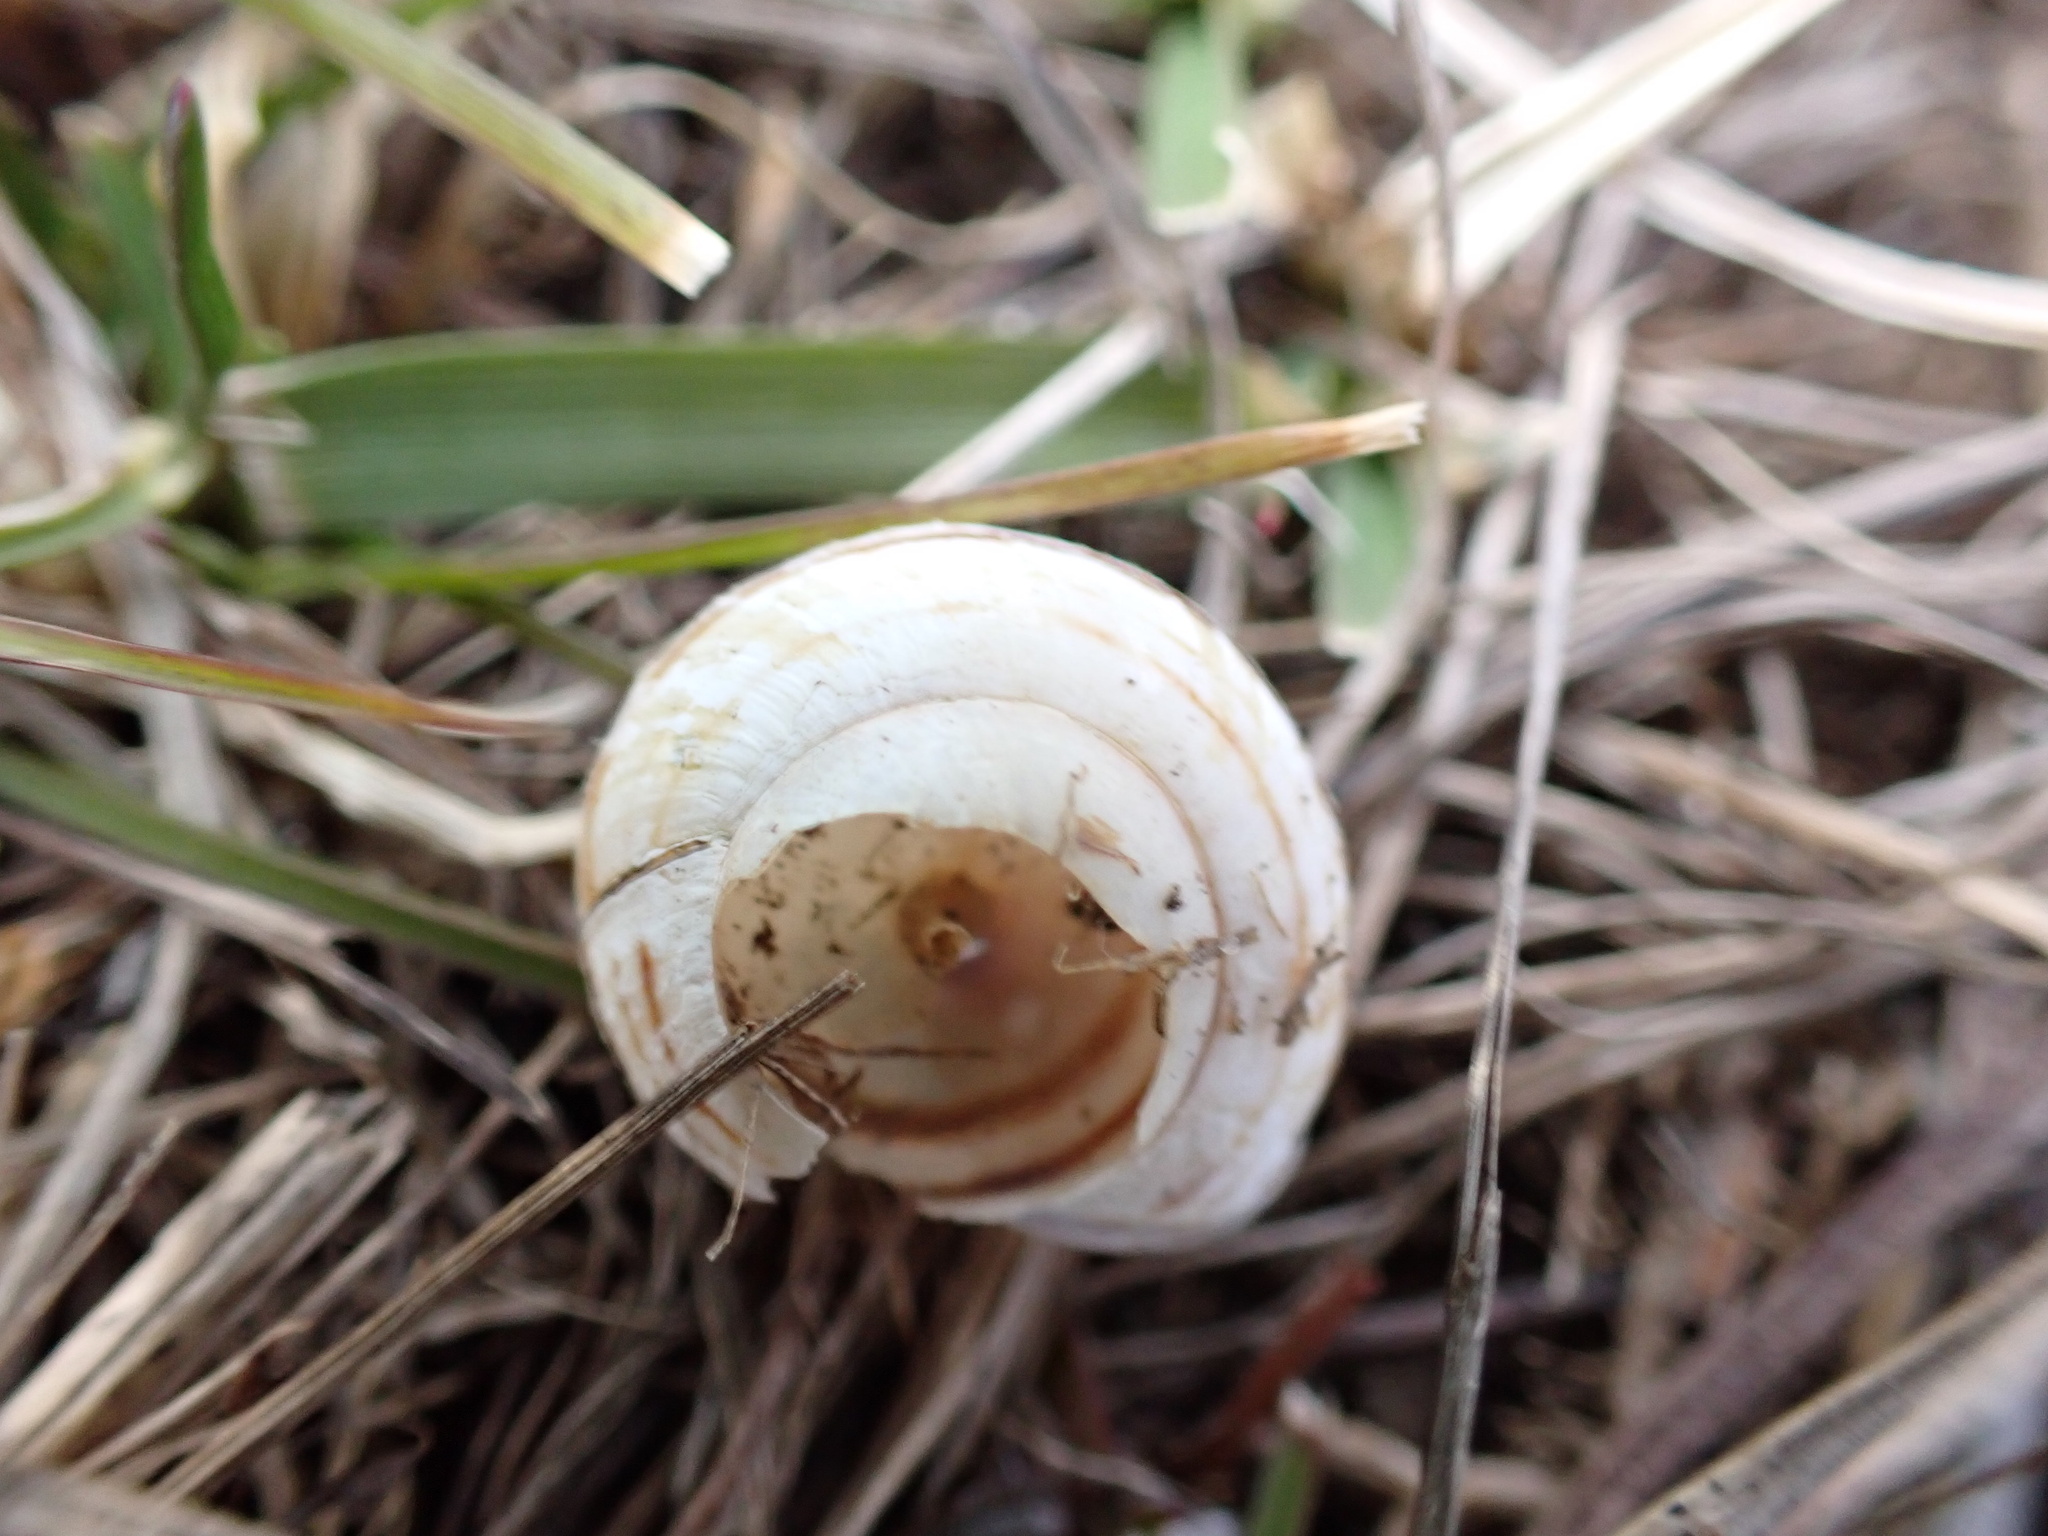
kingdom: Animalia
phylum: Mollusca
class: Gastropoda
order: Stylommatophora
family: Helicidae
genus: Cepaea
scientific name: Cepaea nemoralis
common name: Grovesnail
